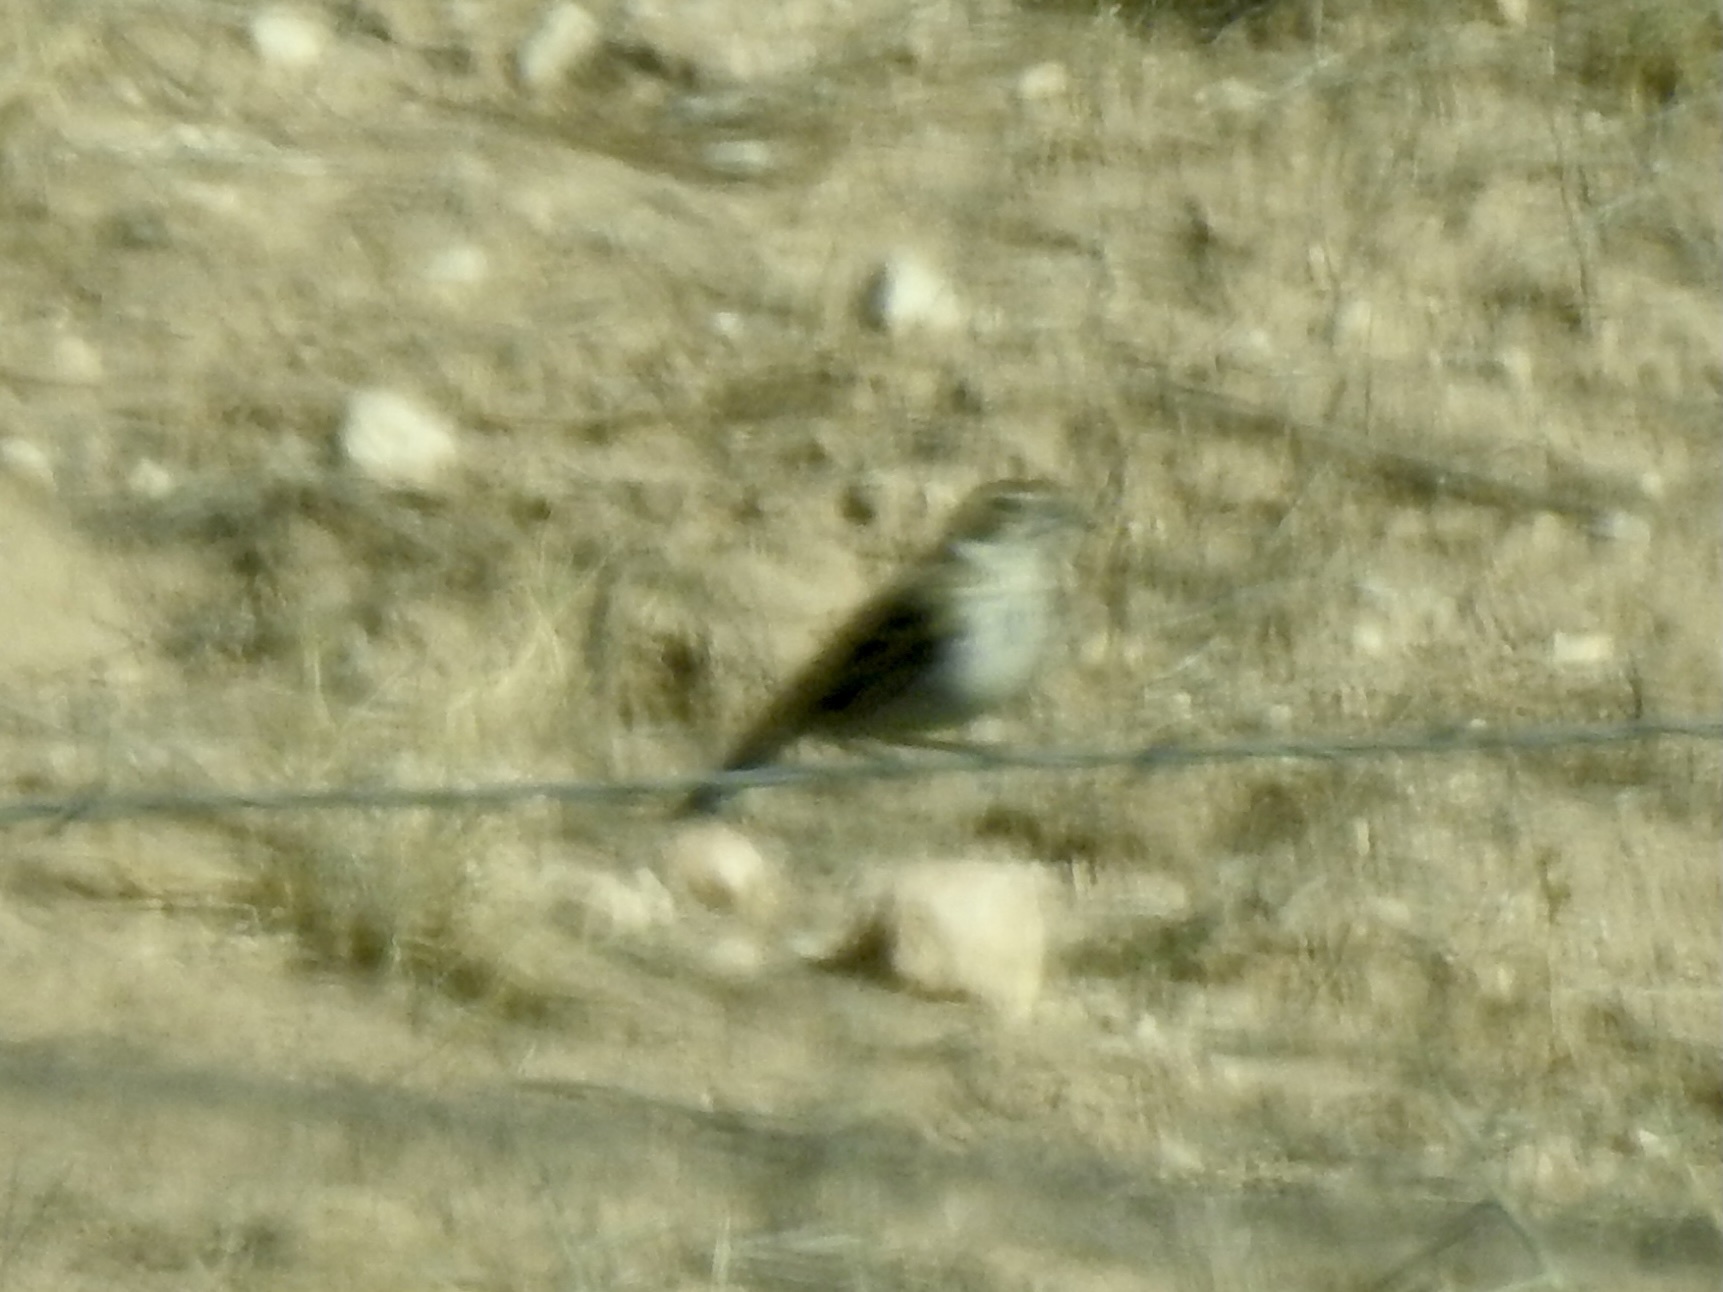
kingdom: Animalia
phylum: Chordata
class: Aves
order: Passeriformes
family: Passerellidae
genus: Calamospiza
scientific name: Calamospiza melanocorys
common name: Lark bunting
